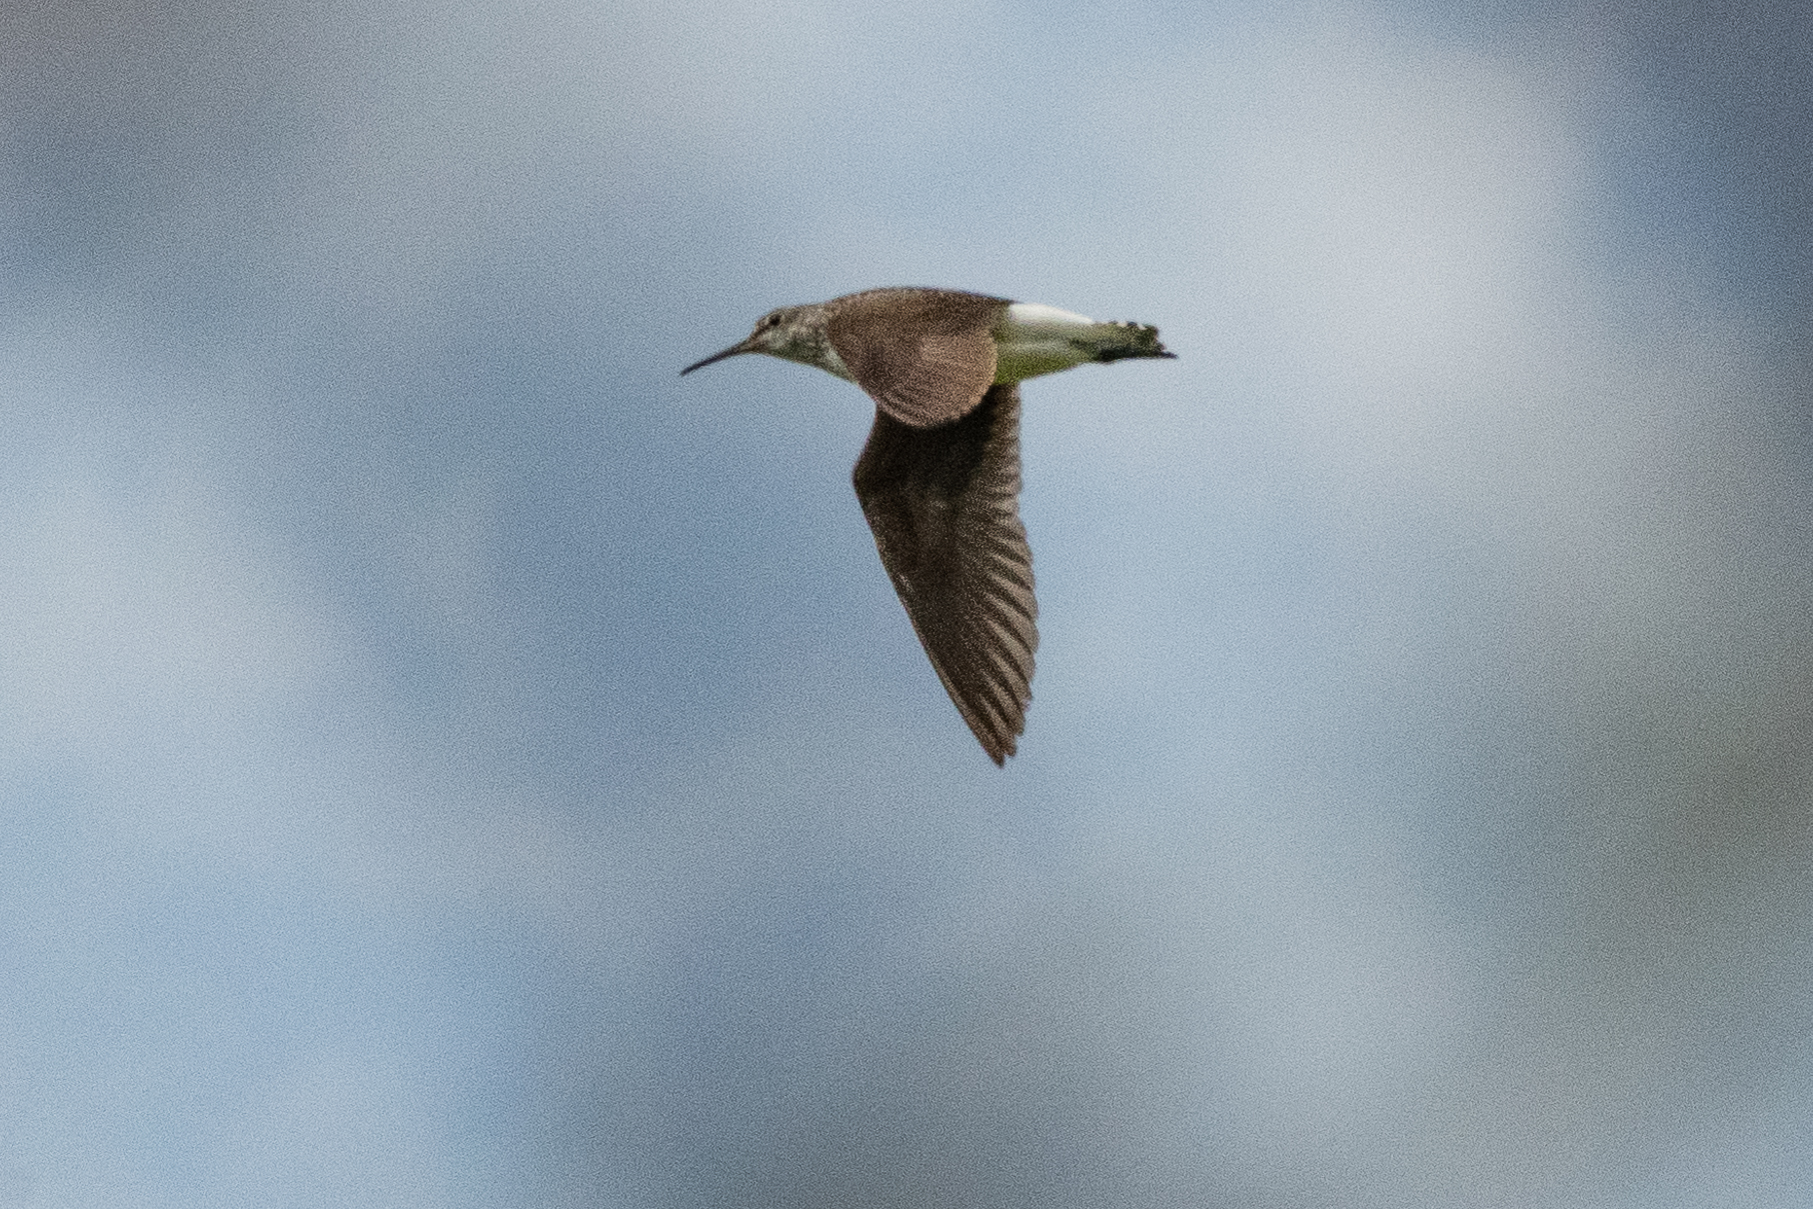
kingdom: Animalia
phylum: Chordata
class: Aves
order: Charadriiformes
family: Scolopacidae
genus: Tringa
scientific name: Tringa ochropus
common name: Green sandpiper
